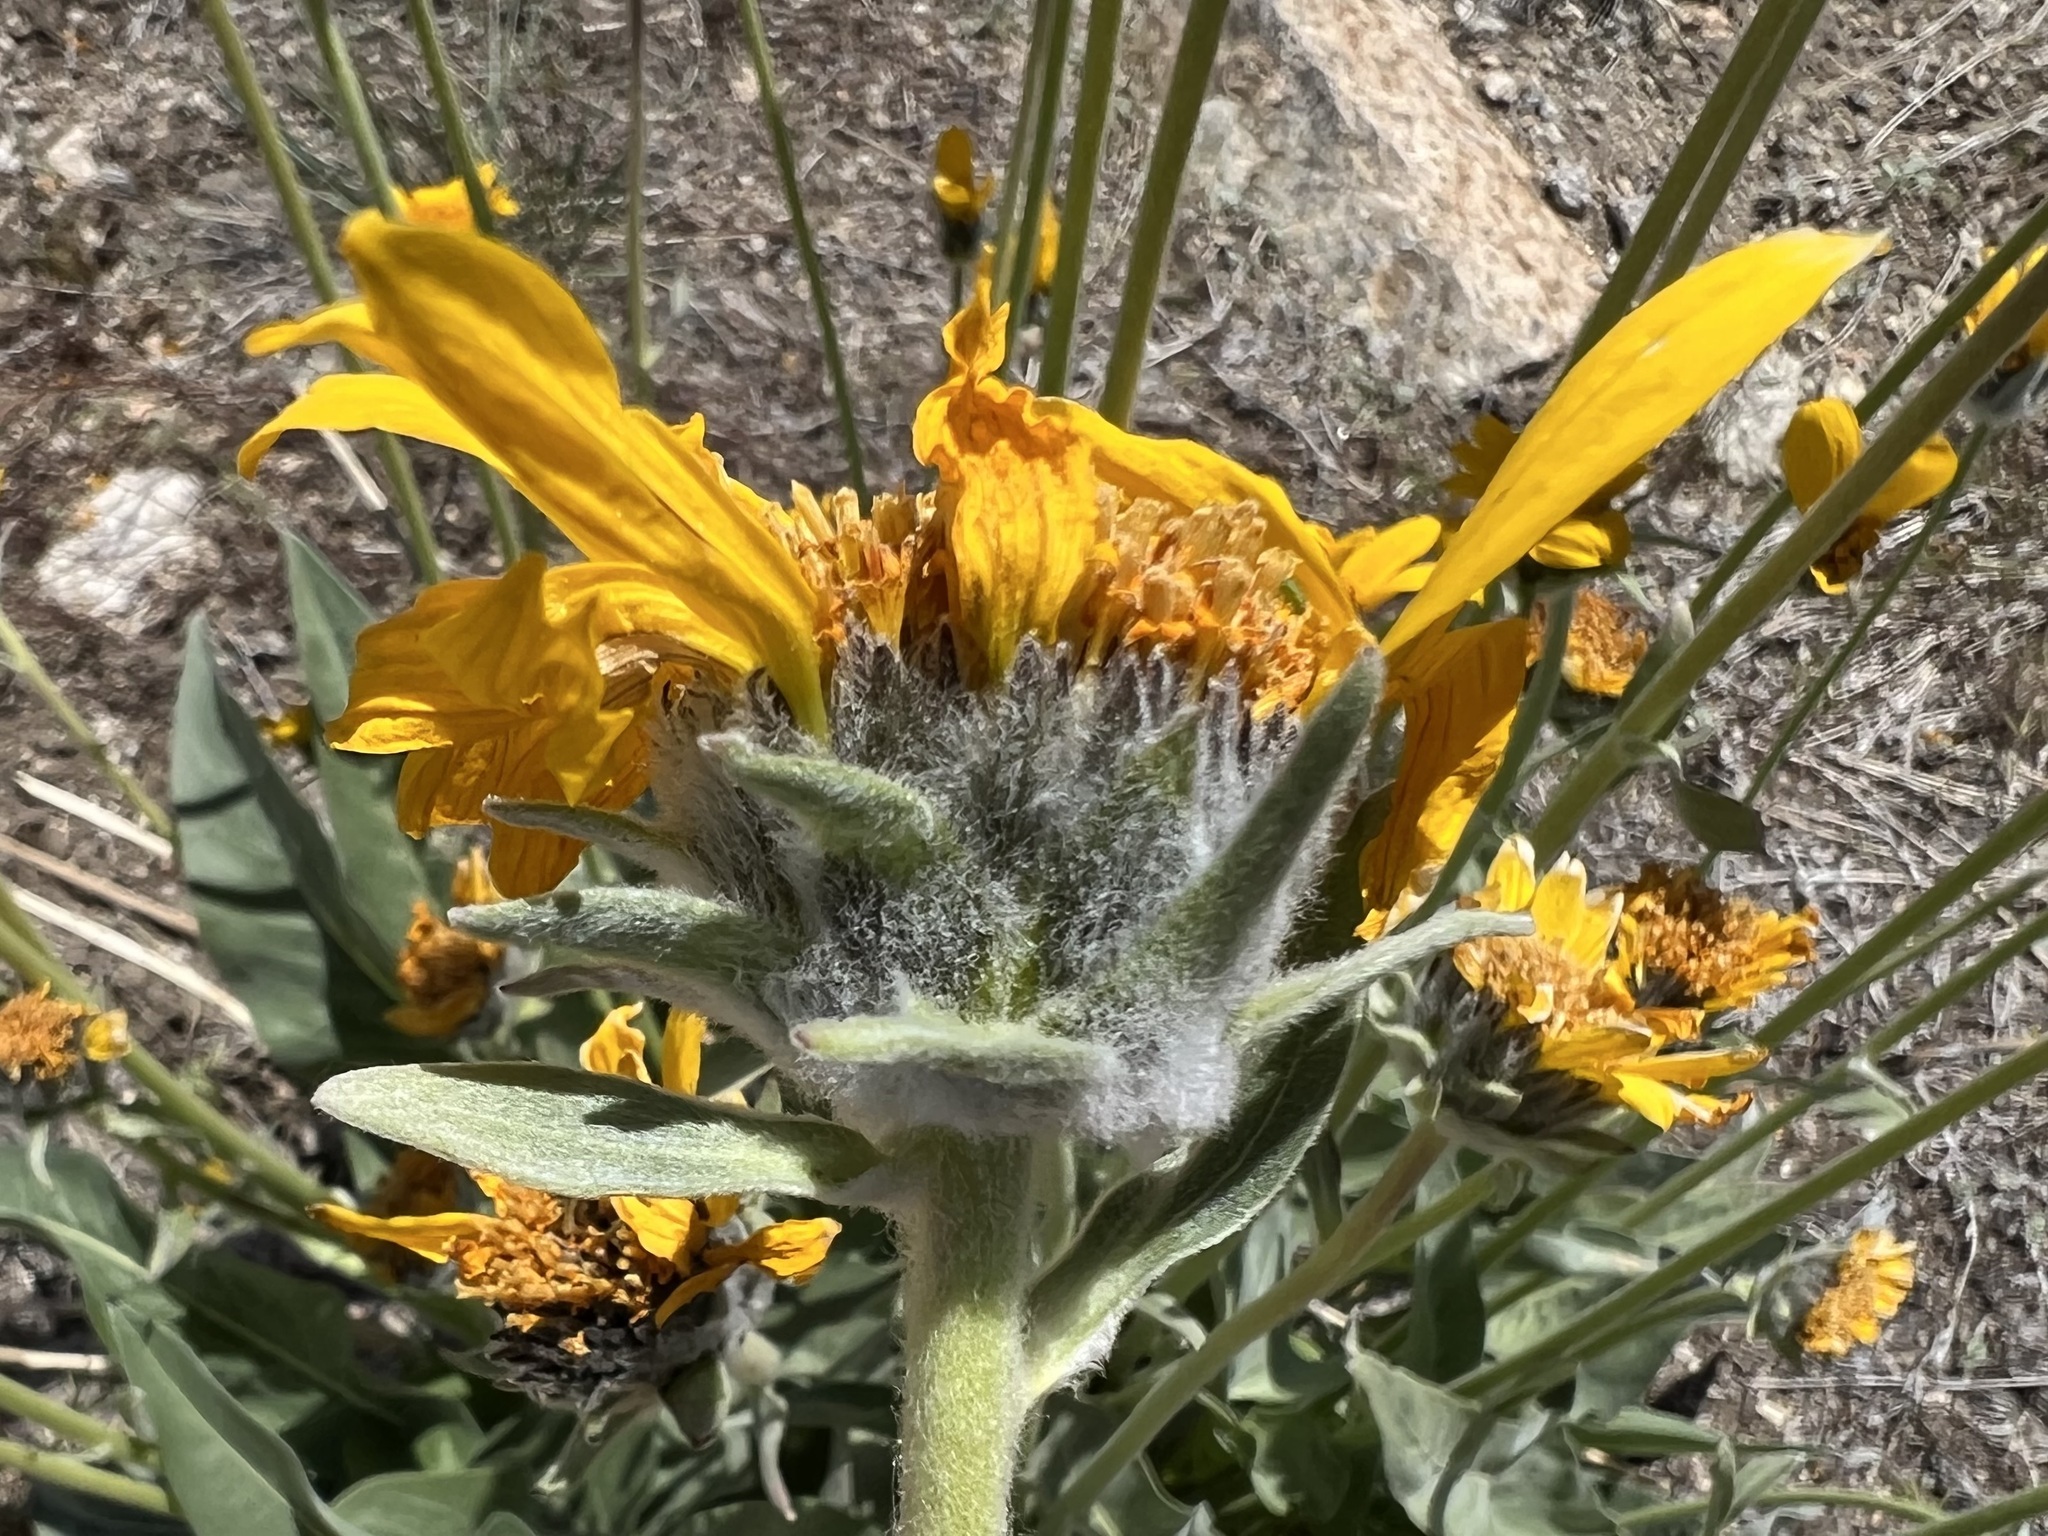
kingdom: Plantae
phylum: Tracheophyta
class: Magnoliopsida
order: Asterales
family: Asteraceae
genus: Wyethia
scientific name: Wyethia sagittata
